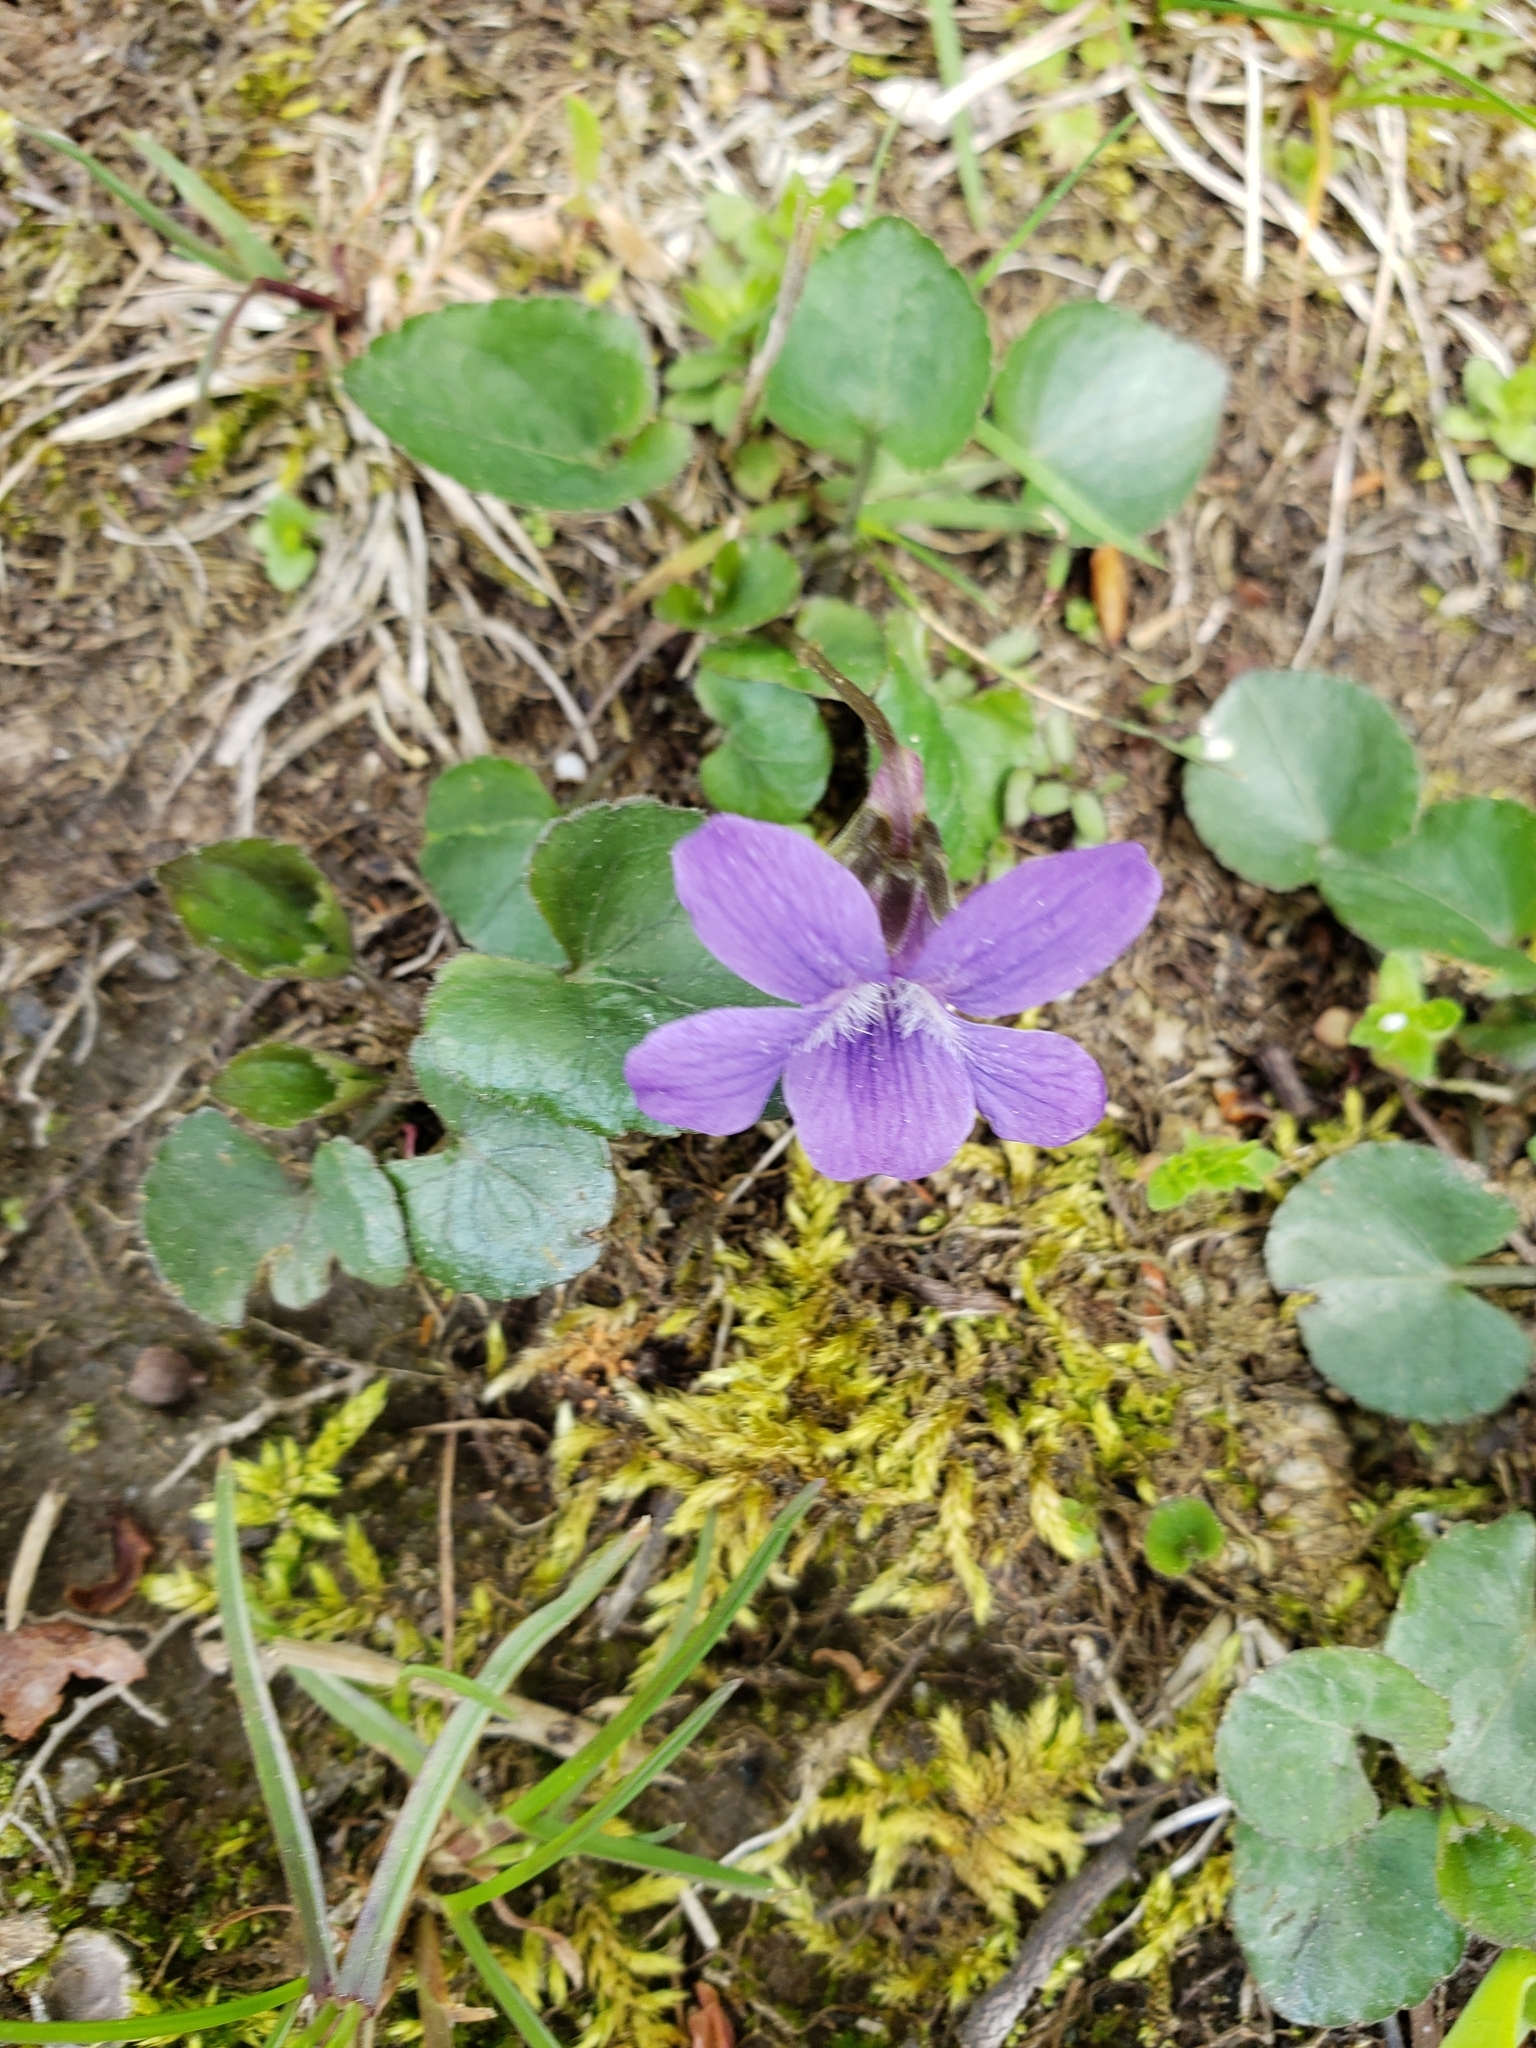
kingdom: Plantae
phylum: Tracheophyta
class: Magnoliopsida
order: Malpighiales
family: Violaceae
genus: Viola
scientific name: Viola adunca
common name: Sand violet
